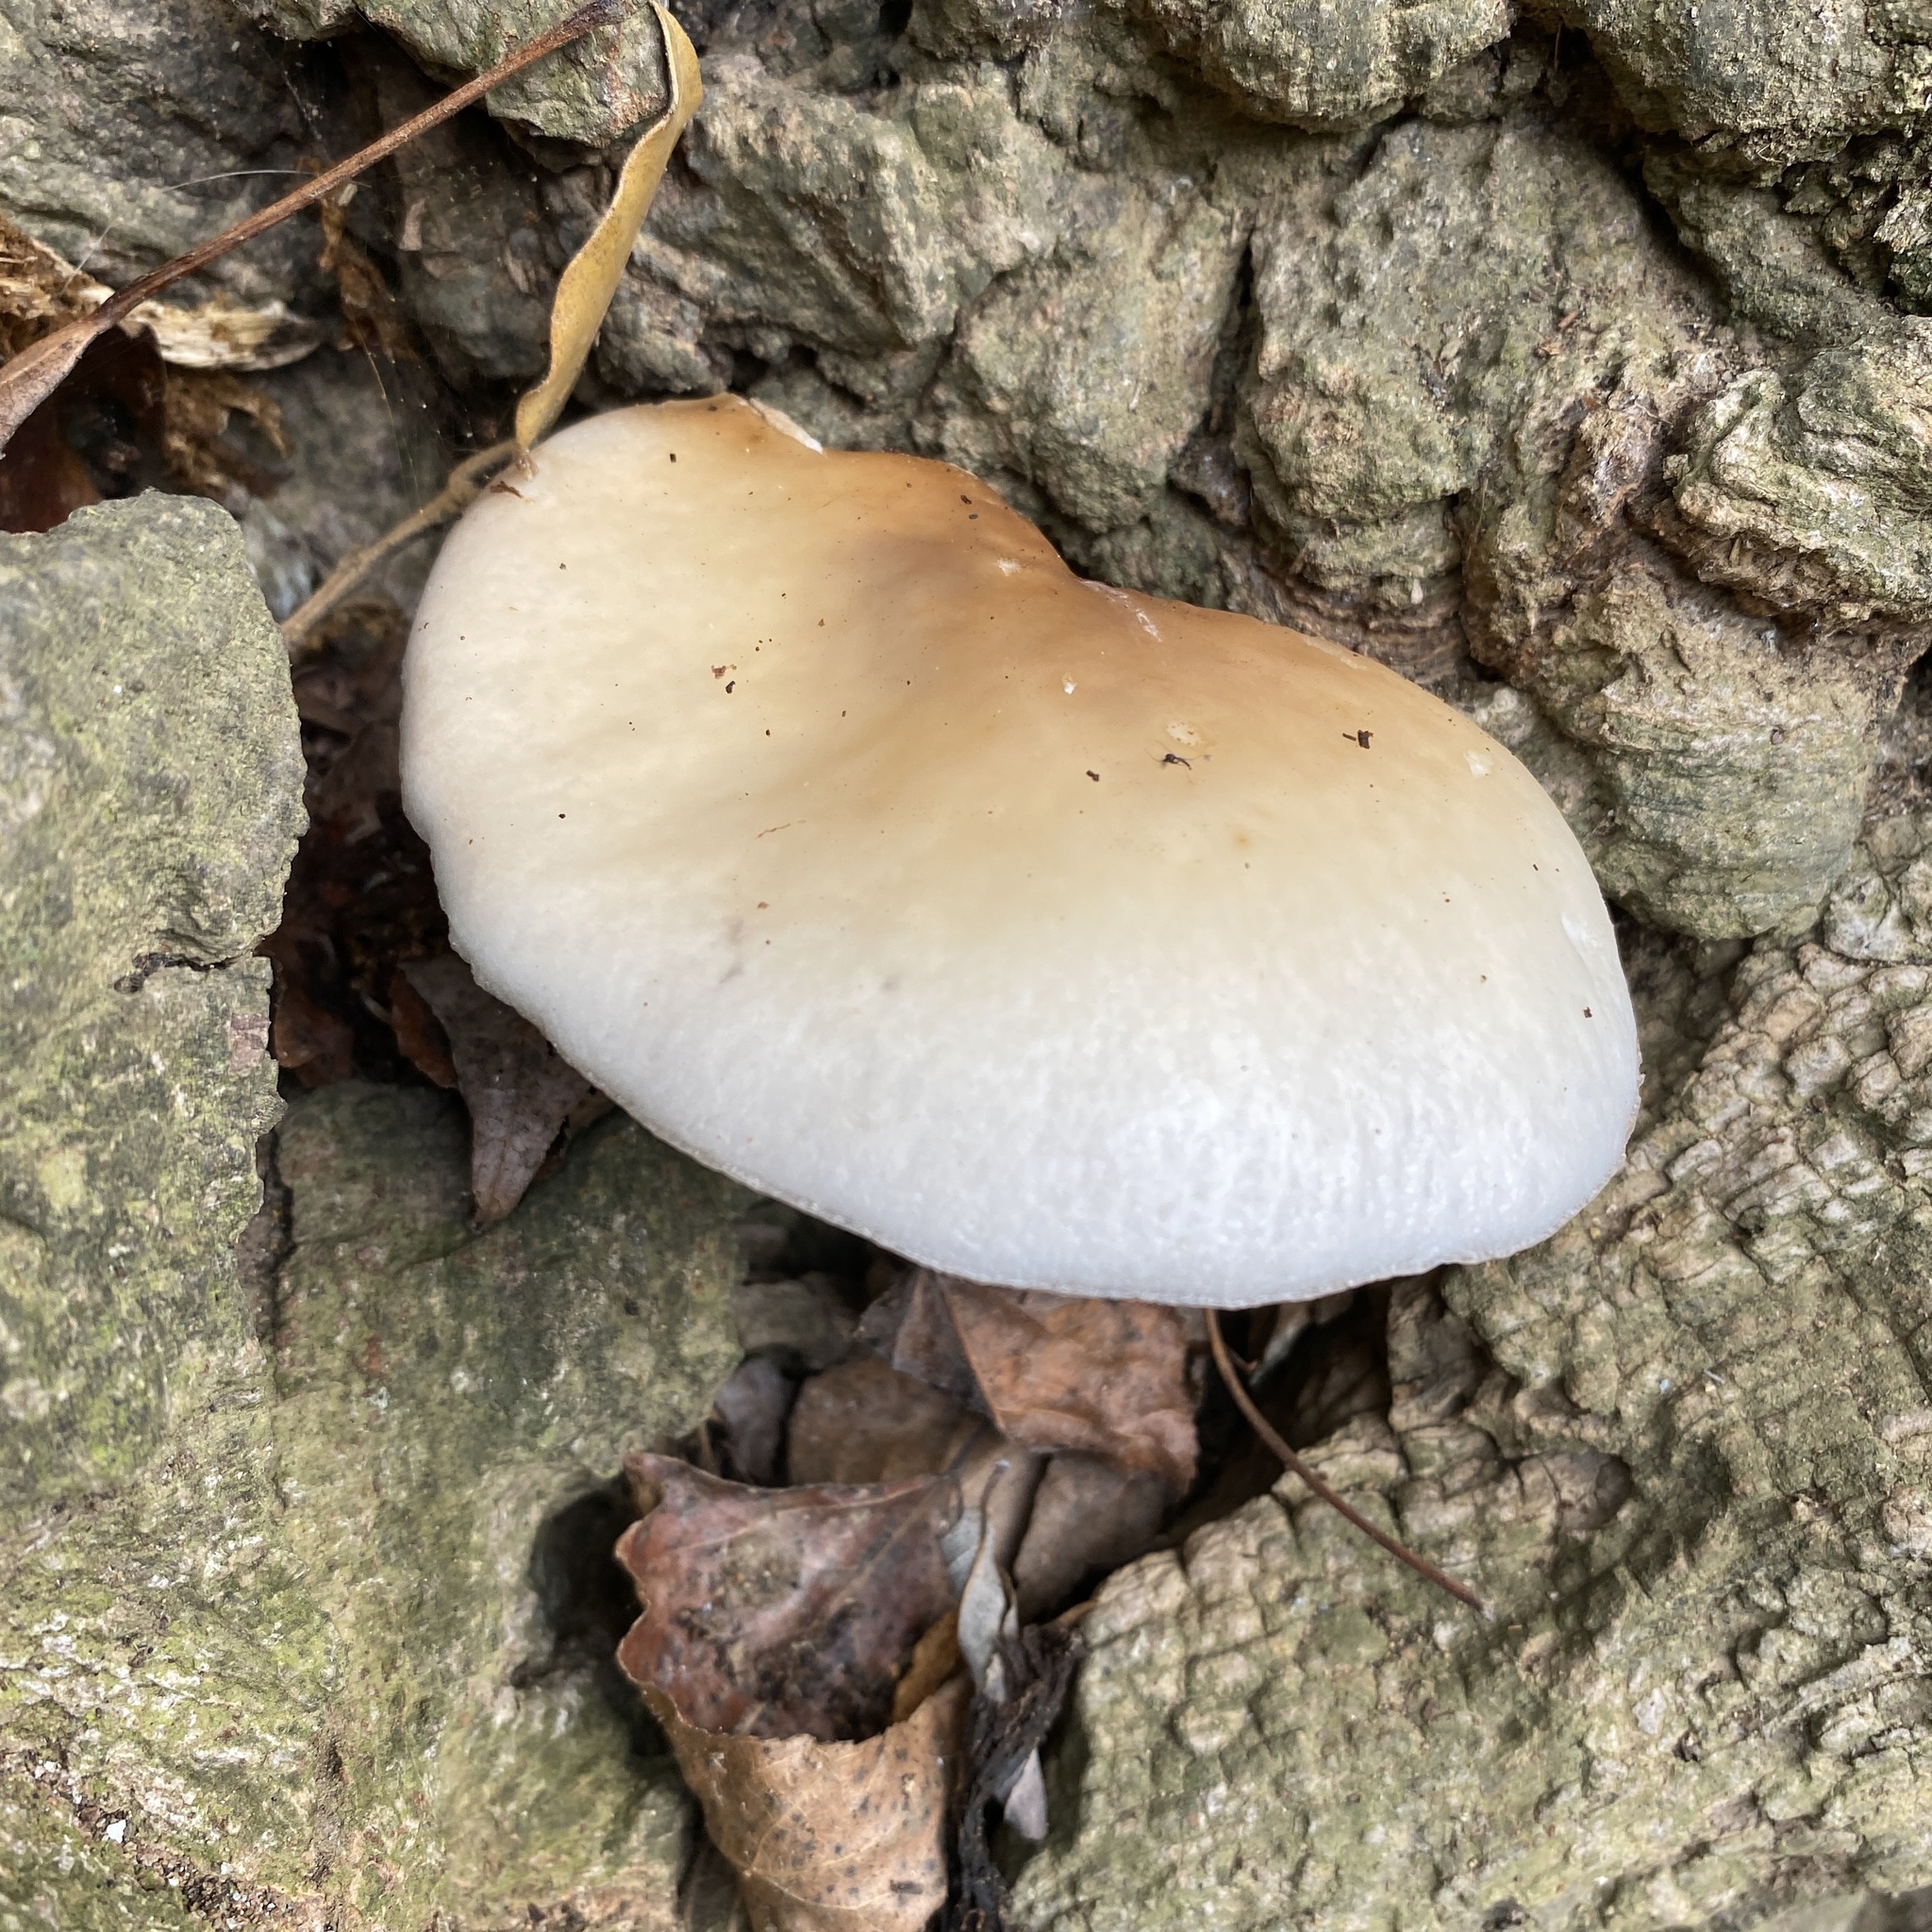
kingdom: Fungi
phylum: Basidiomycota
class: Agaricomycetes
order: Agaricales
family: Tubariaceae
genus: Cyclocybe
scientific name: Cyclocybe cylindracea
